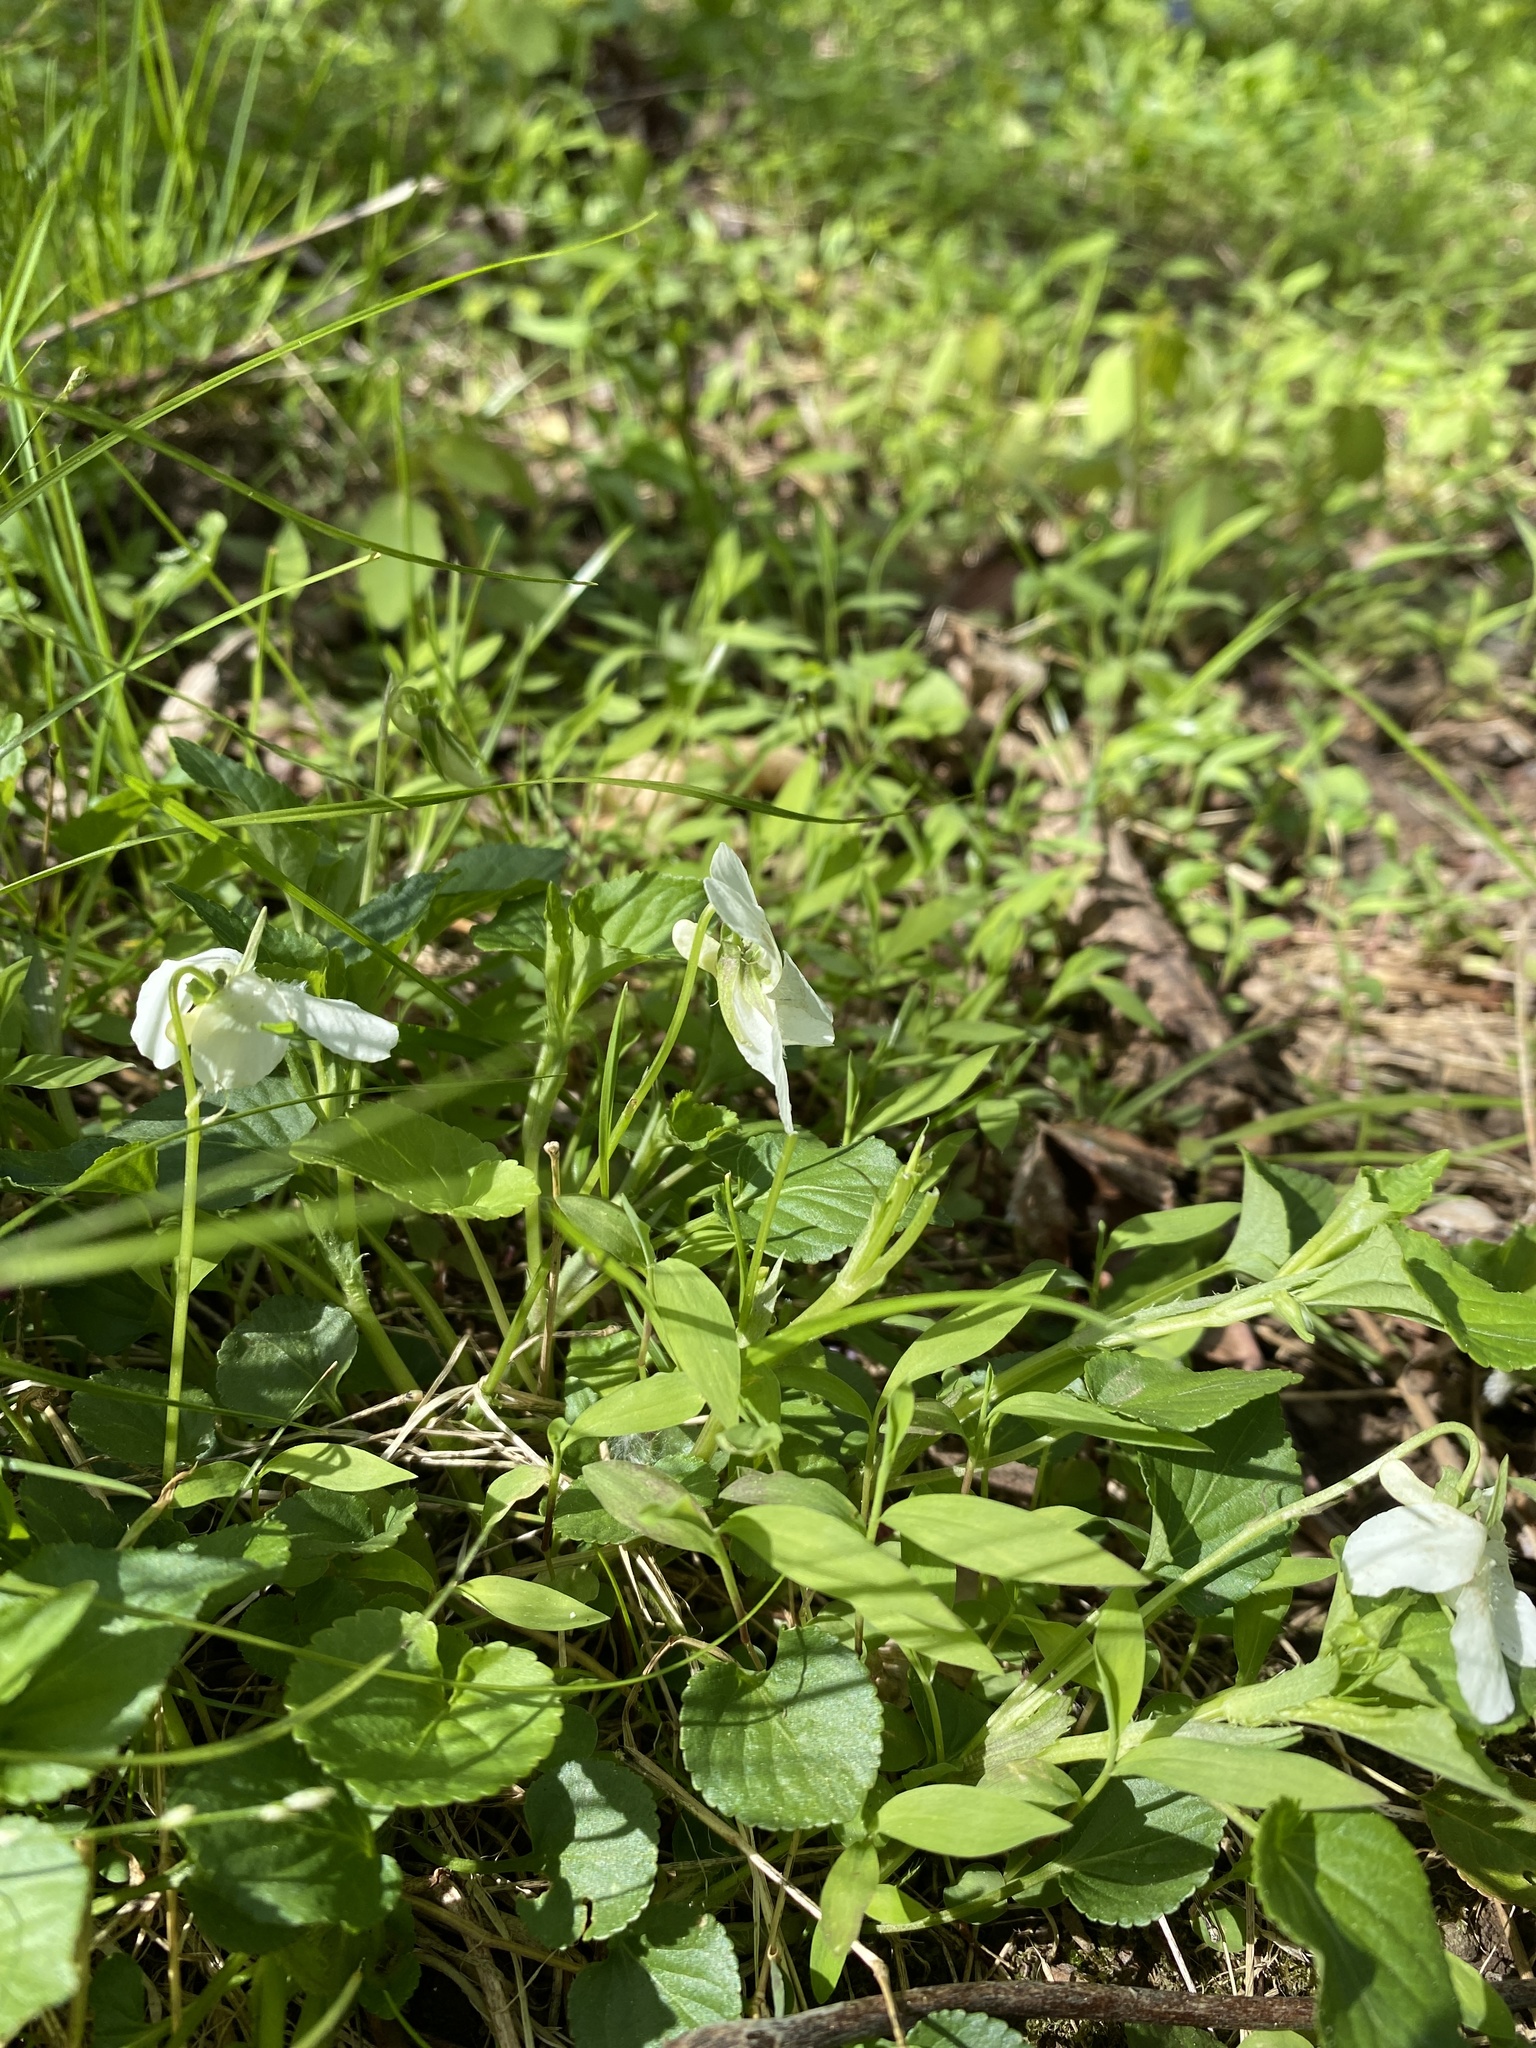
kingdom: Plantae
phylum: Tracheophyta
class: Magnoliopsida
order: Malpighiales
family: Violaceae
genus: Viola
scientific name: Viola striata
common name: Cream violet
